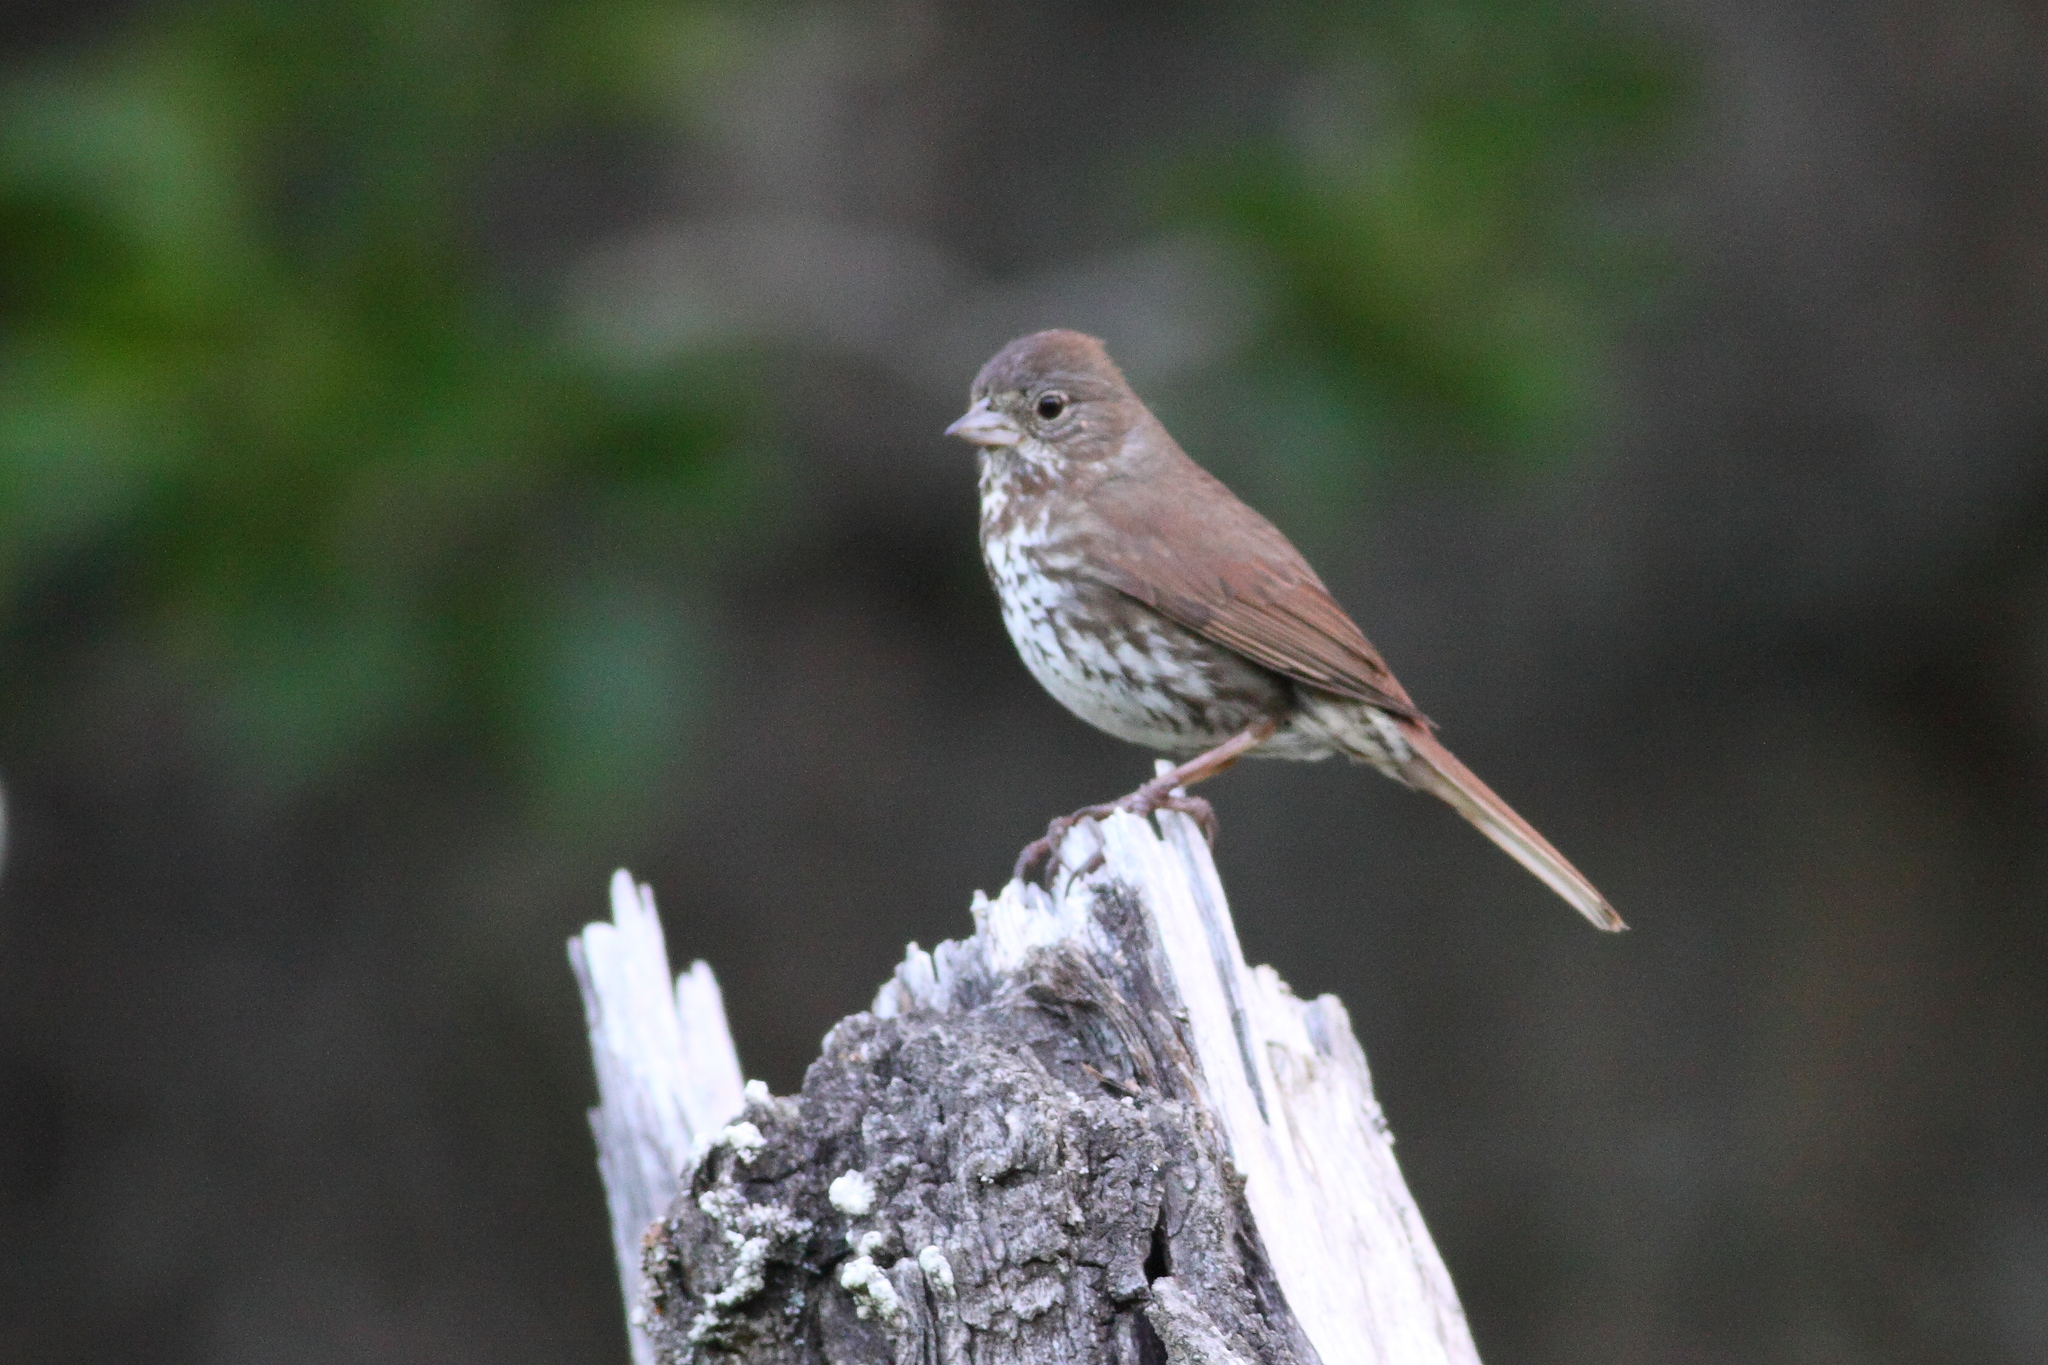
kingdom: Animalia
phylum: Chordata
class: Aves
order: Passeriformes
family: Passerellidae
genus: Passerella
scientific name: Passerella iliaca
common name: Fox sparrow
